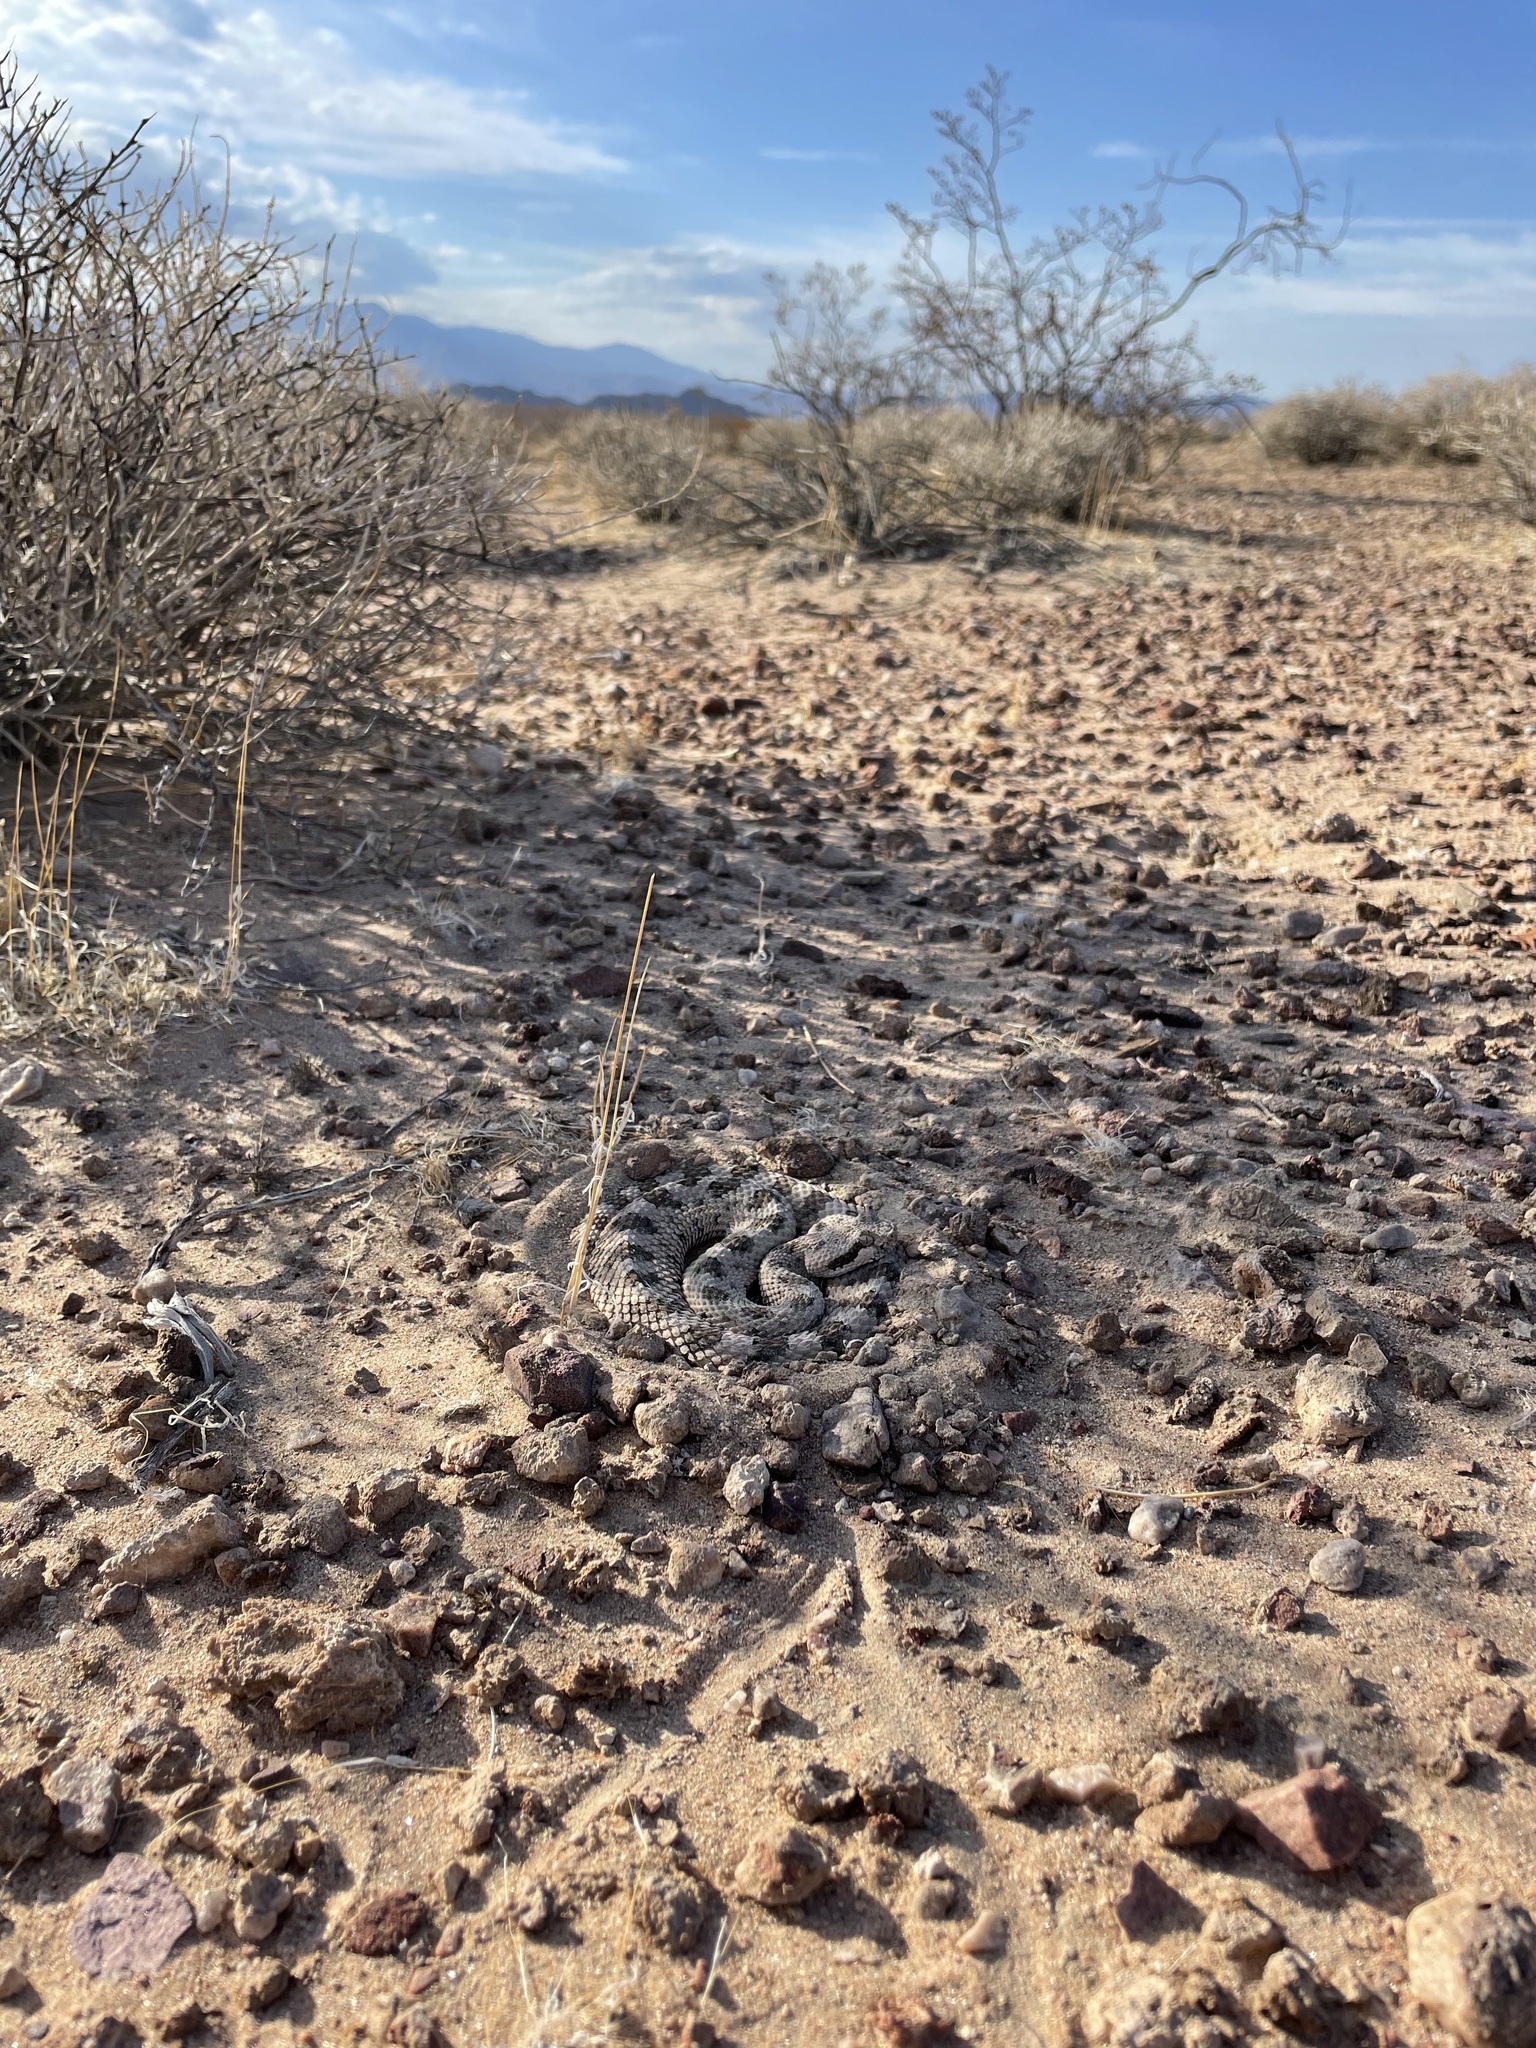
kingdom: Animalia
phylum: Chordata
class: Squamata
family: Viperidae
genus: Crotalus
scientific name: Crotalus cerastes
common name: Sidewinder
